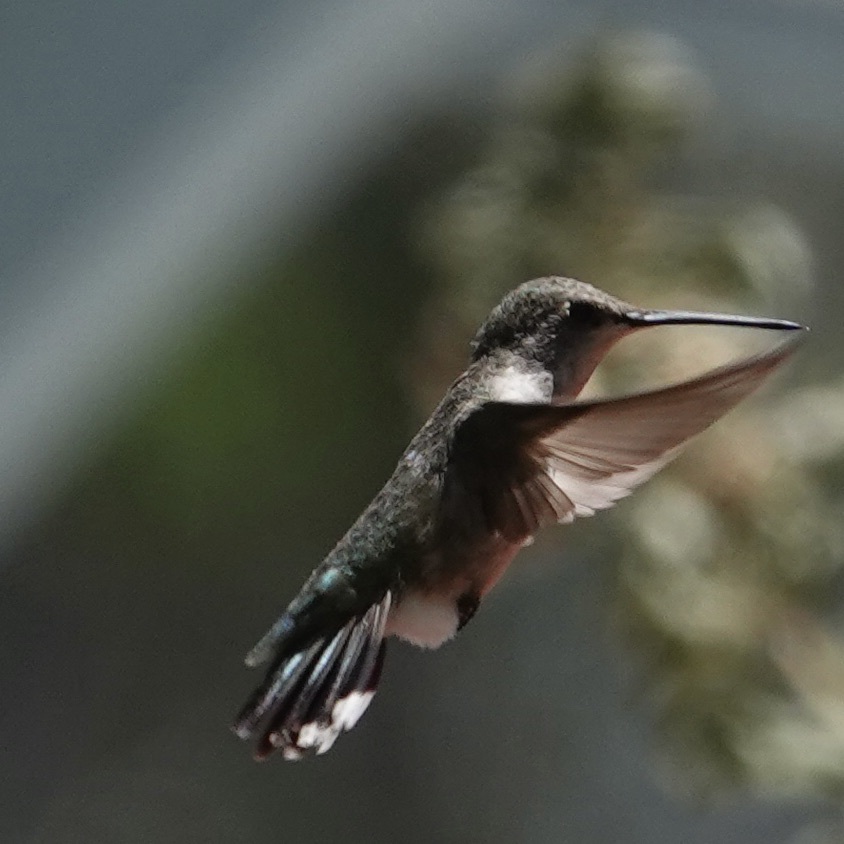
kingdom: Animalia
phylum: Chordata
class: Aves
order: Apodiformes
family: Trochilidae
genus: Archilochus
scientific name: Archilochus alexandri
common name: Black-chinned hummingbird
